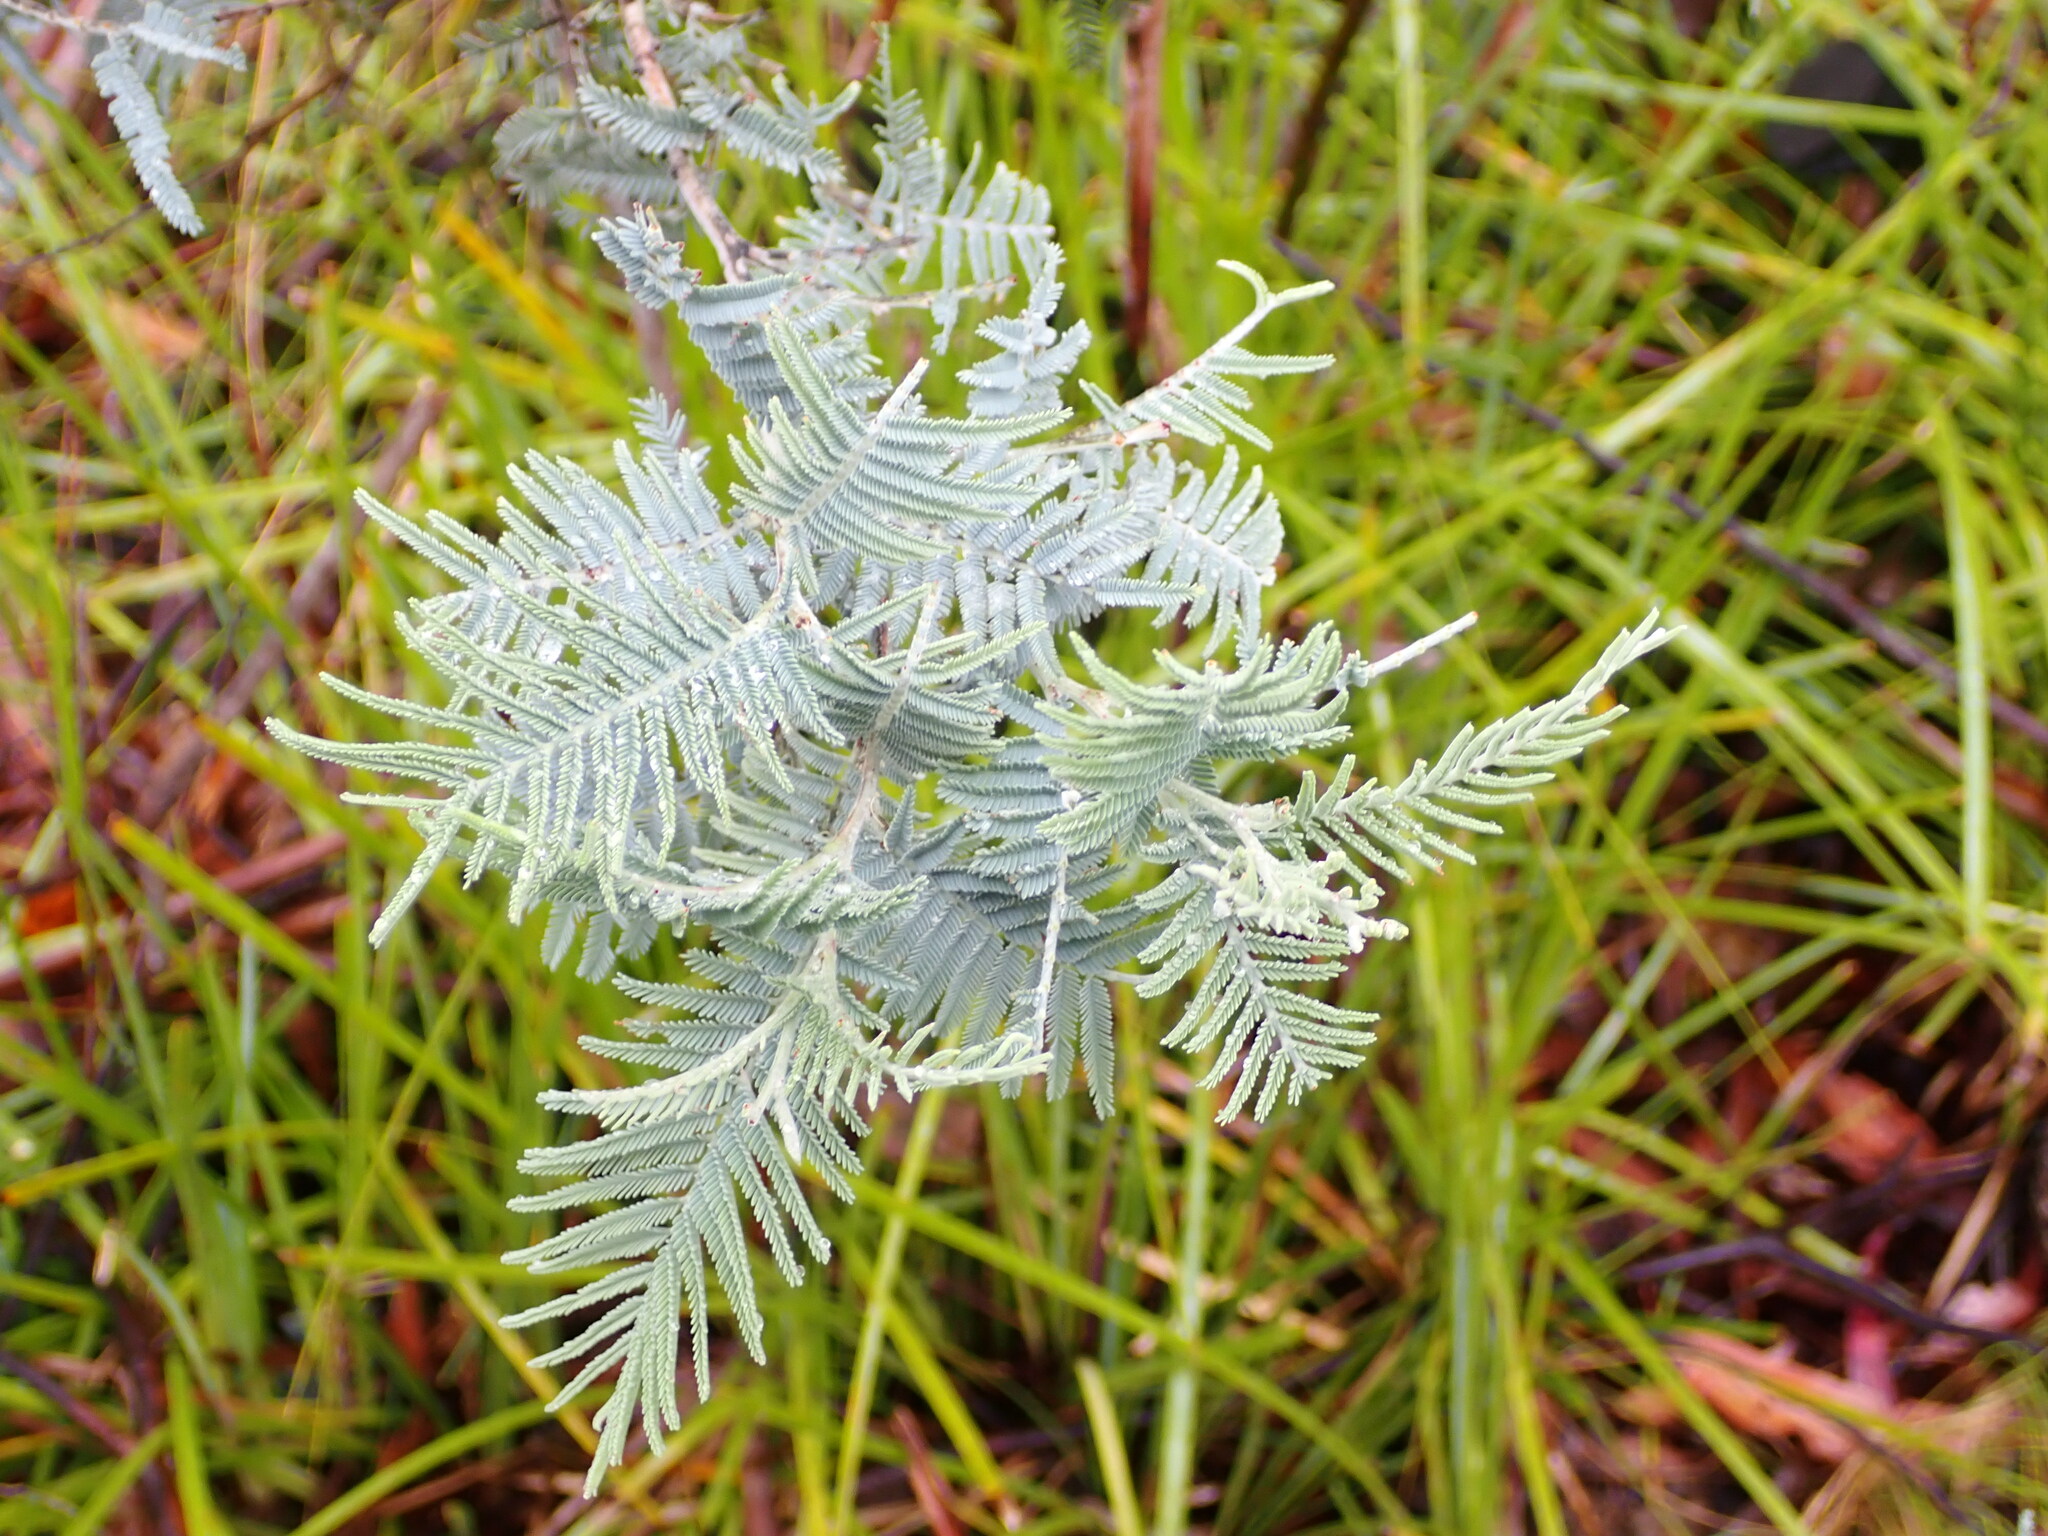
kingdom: Plantae
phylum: Tracheophyta
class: Magnoliopsida
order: Fabales
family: Fabaceae
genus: Acacia
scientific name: Acacia dealbata
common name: Silver wattle
